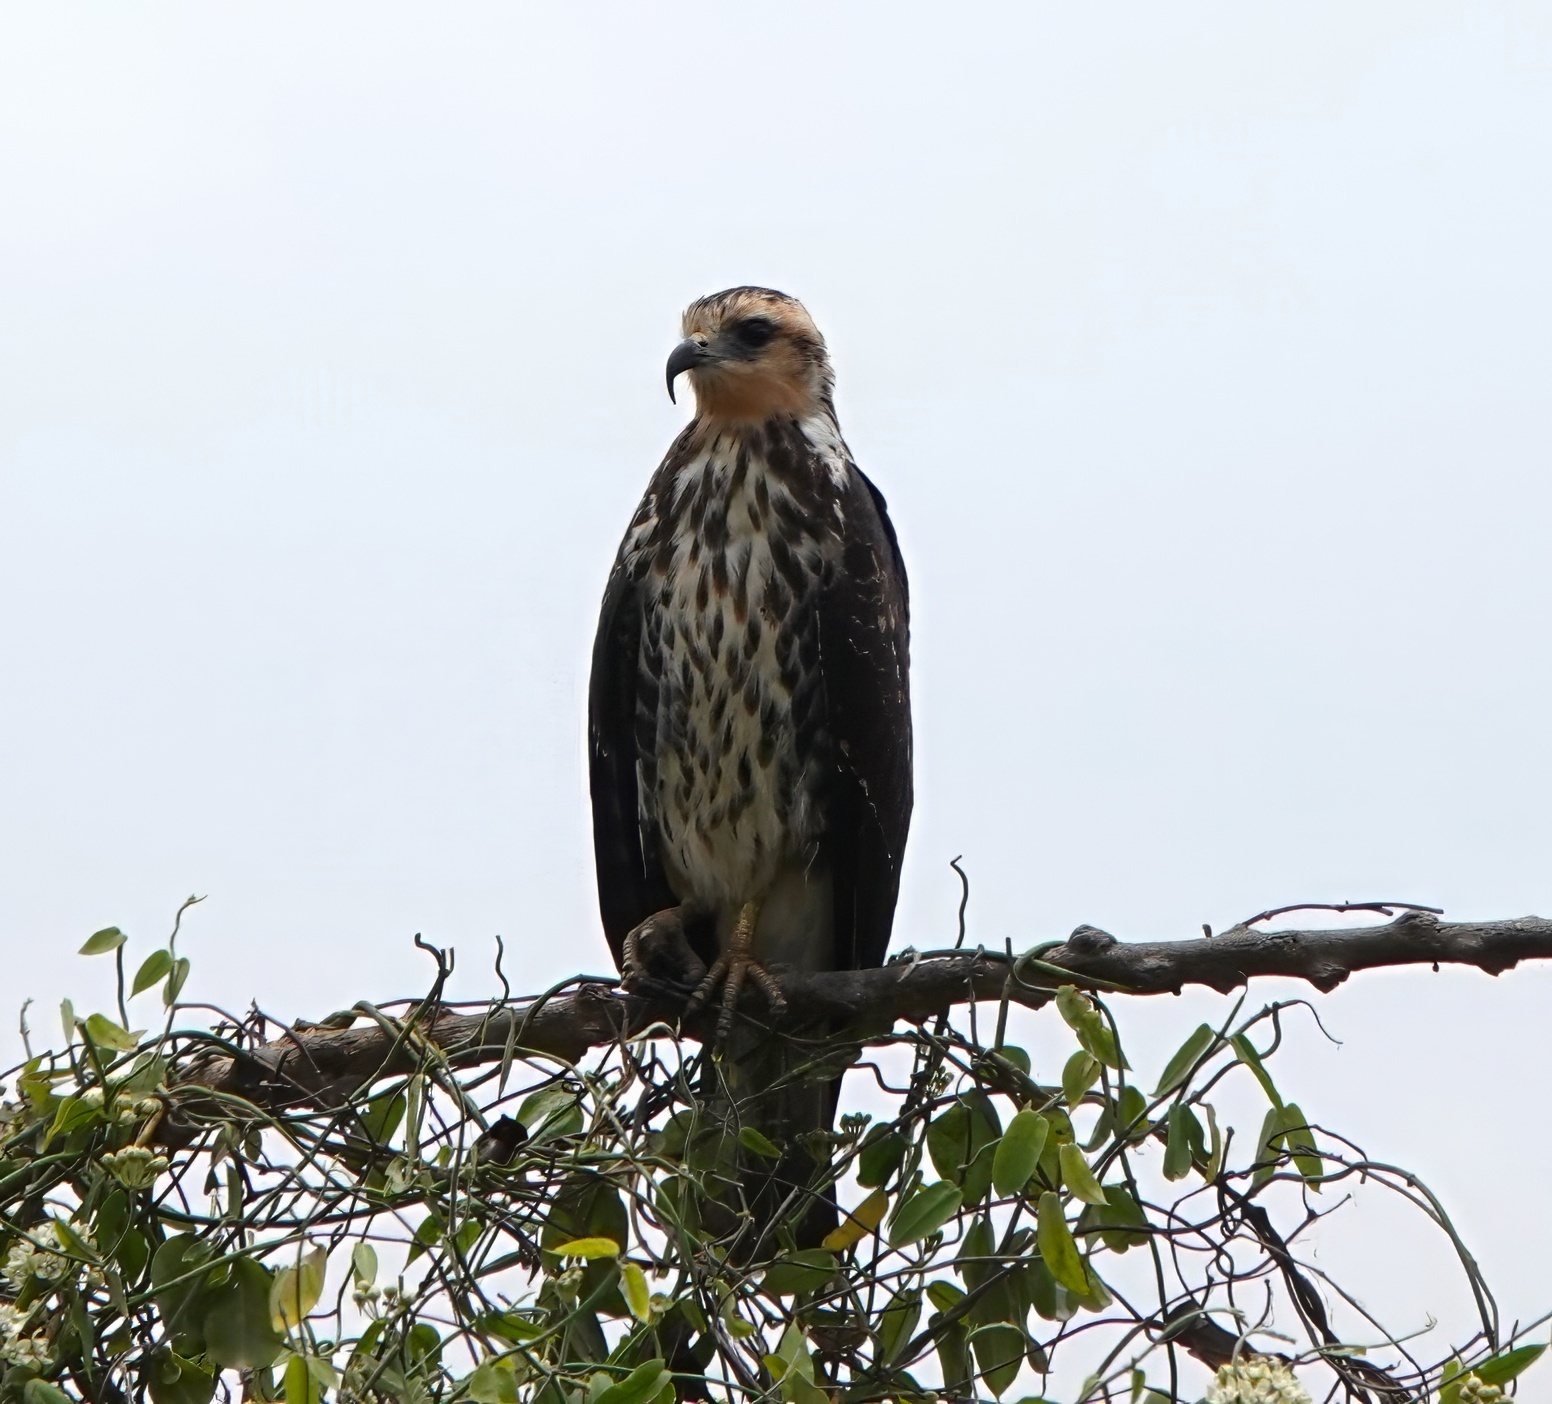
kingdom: Animalia
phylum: Chordata
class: Aves
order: Accipitriformes
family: Accipitridae
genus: Rostrhamus
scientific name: Rostrhamus sociabilis
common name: Snail kite
